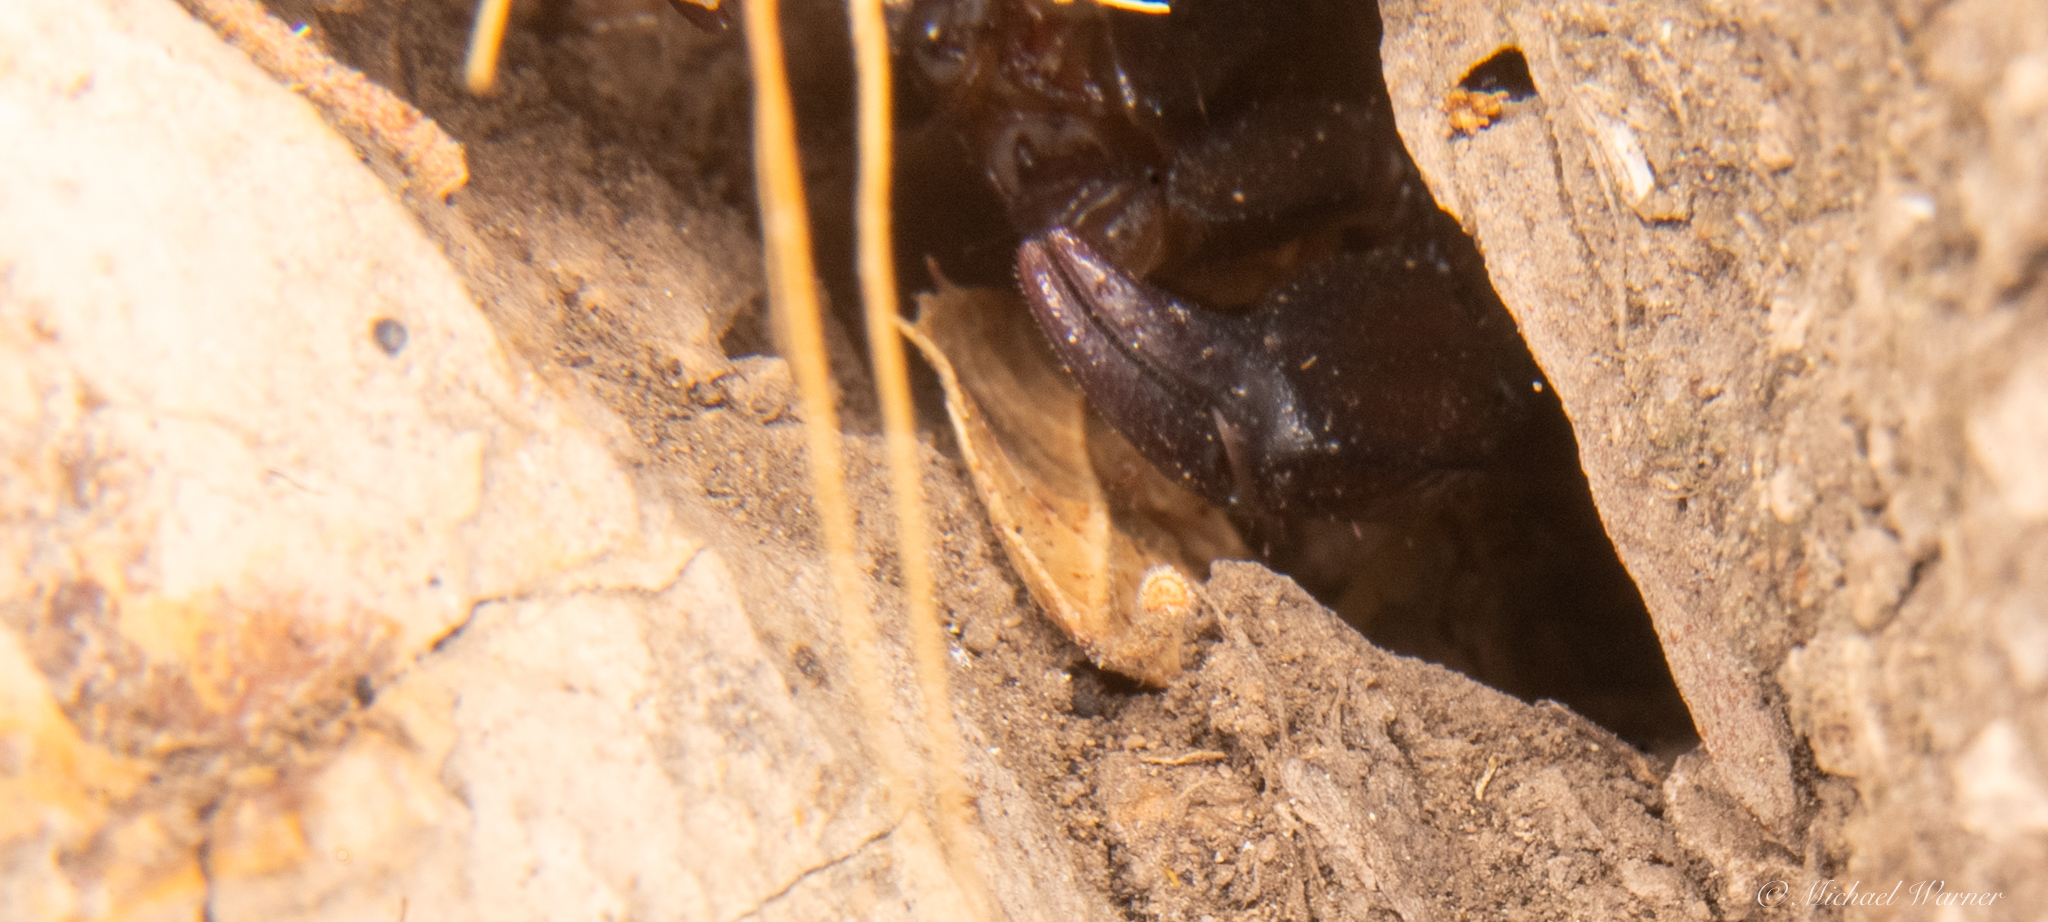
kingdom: Animalia
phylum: Arthropoda
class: Arachnida
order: Scorpiones
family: Chactidae
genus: Uroctonus
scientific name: Uroctonus mordax
